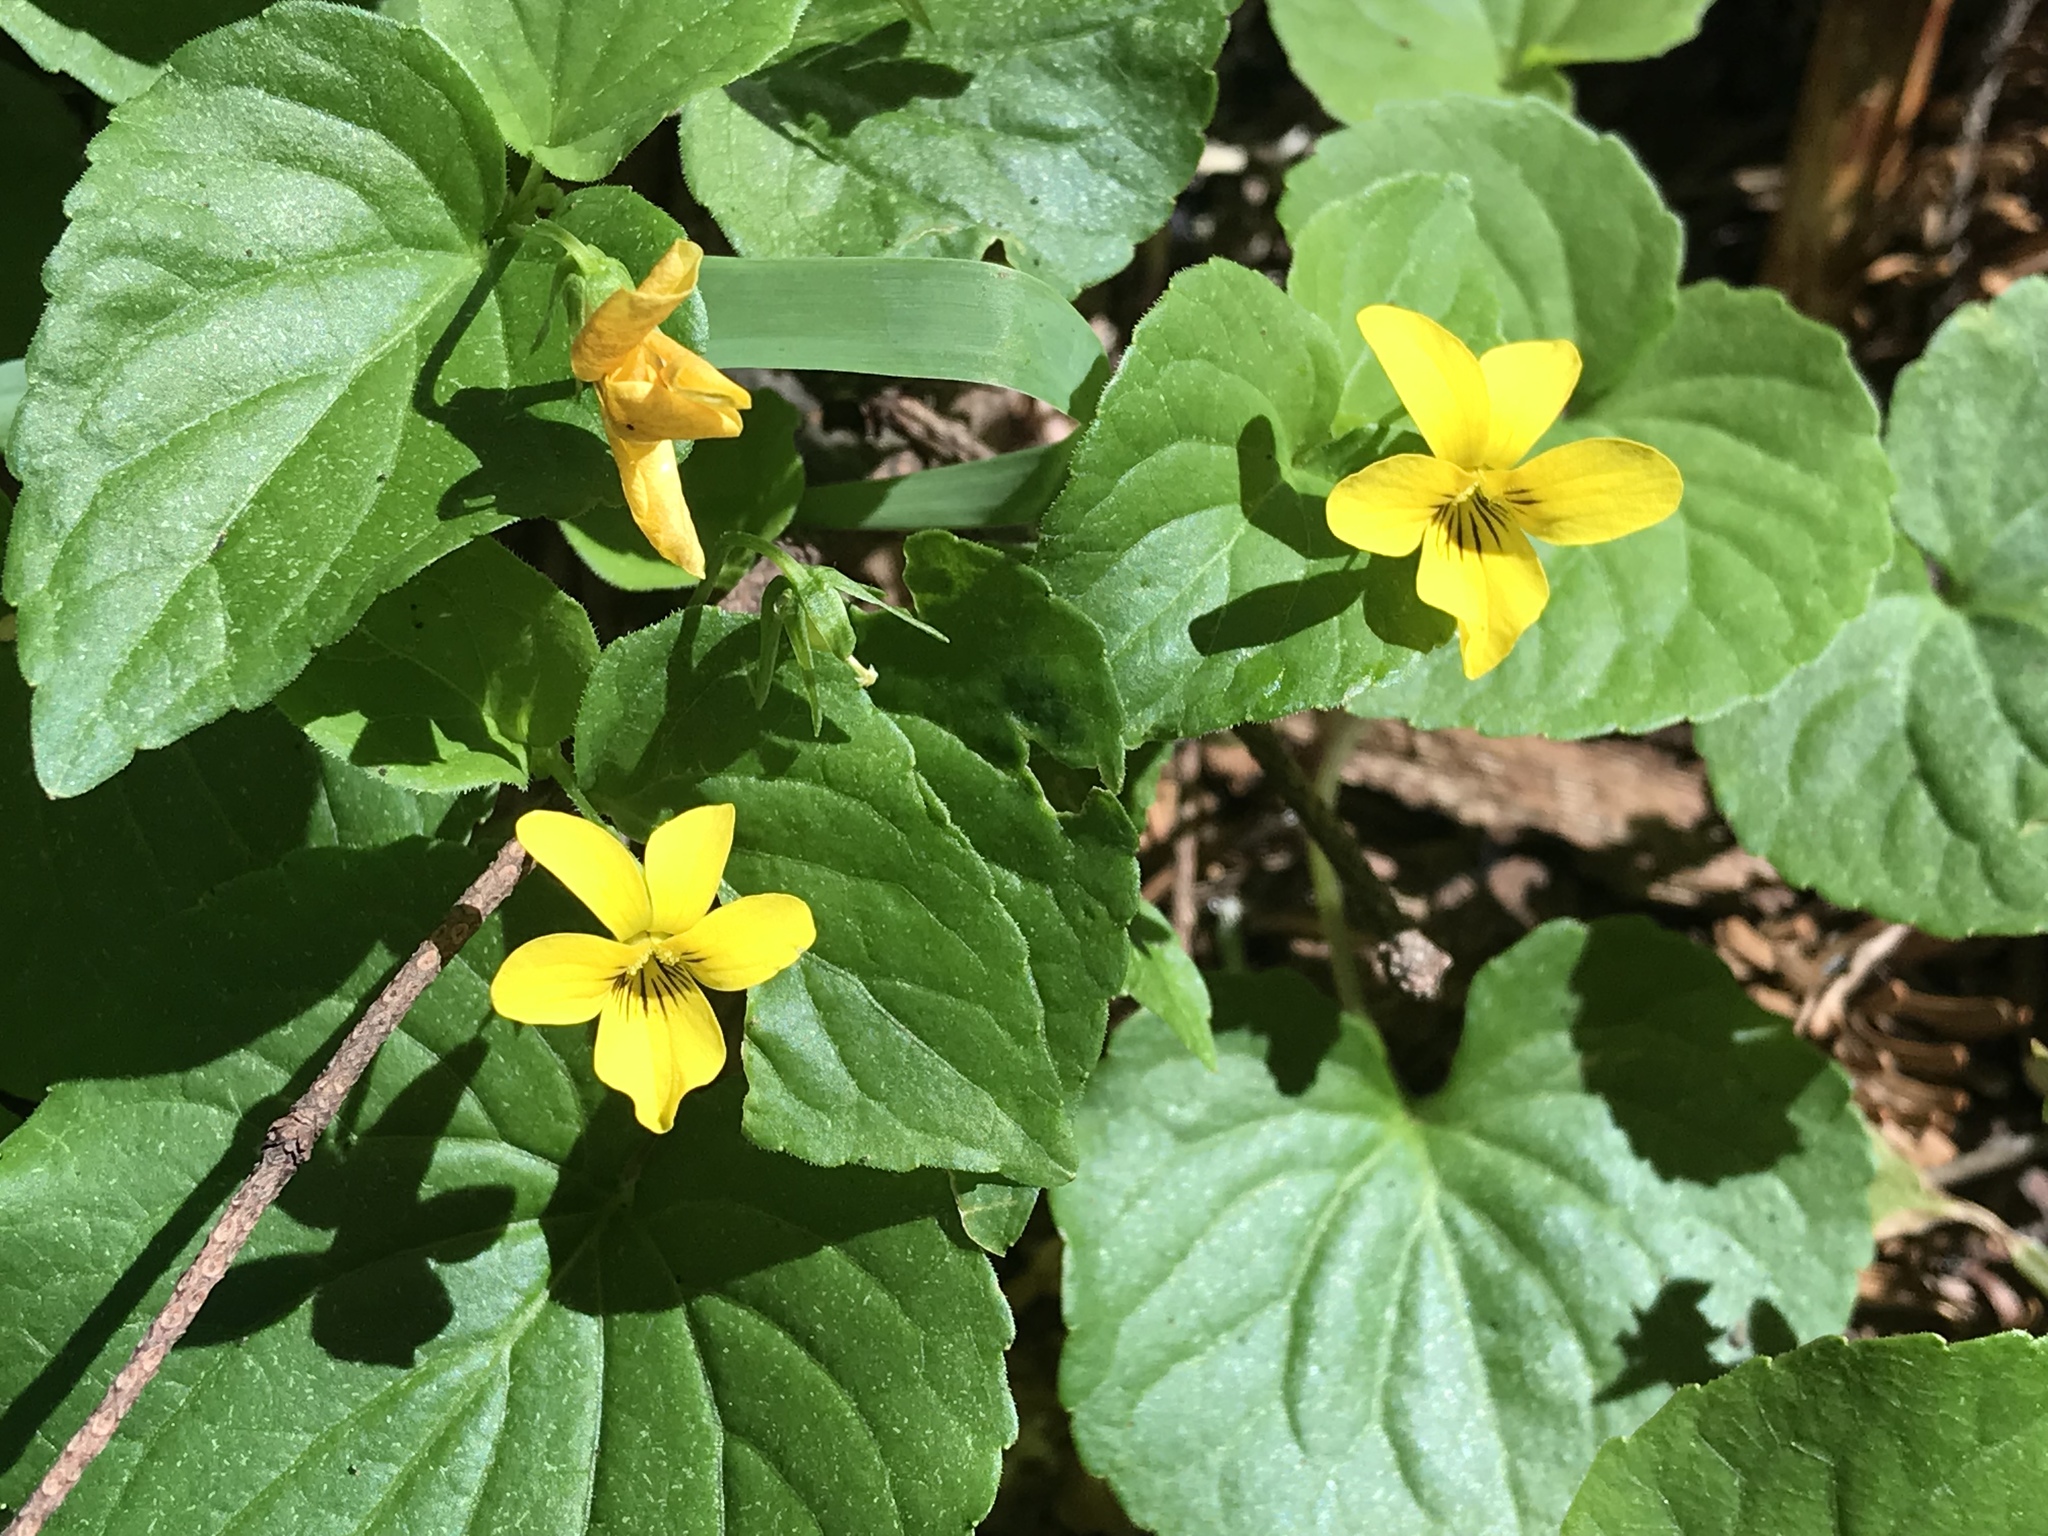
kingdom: Plantae
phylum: Tracheophyta
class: Magnoliopsida
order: Malpighiales
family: Violaceae
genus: Viola
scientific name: Viola glabella
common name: Stream violet
